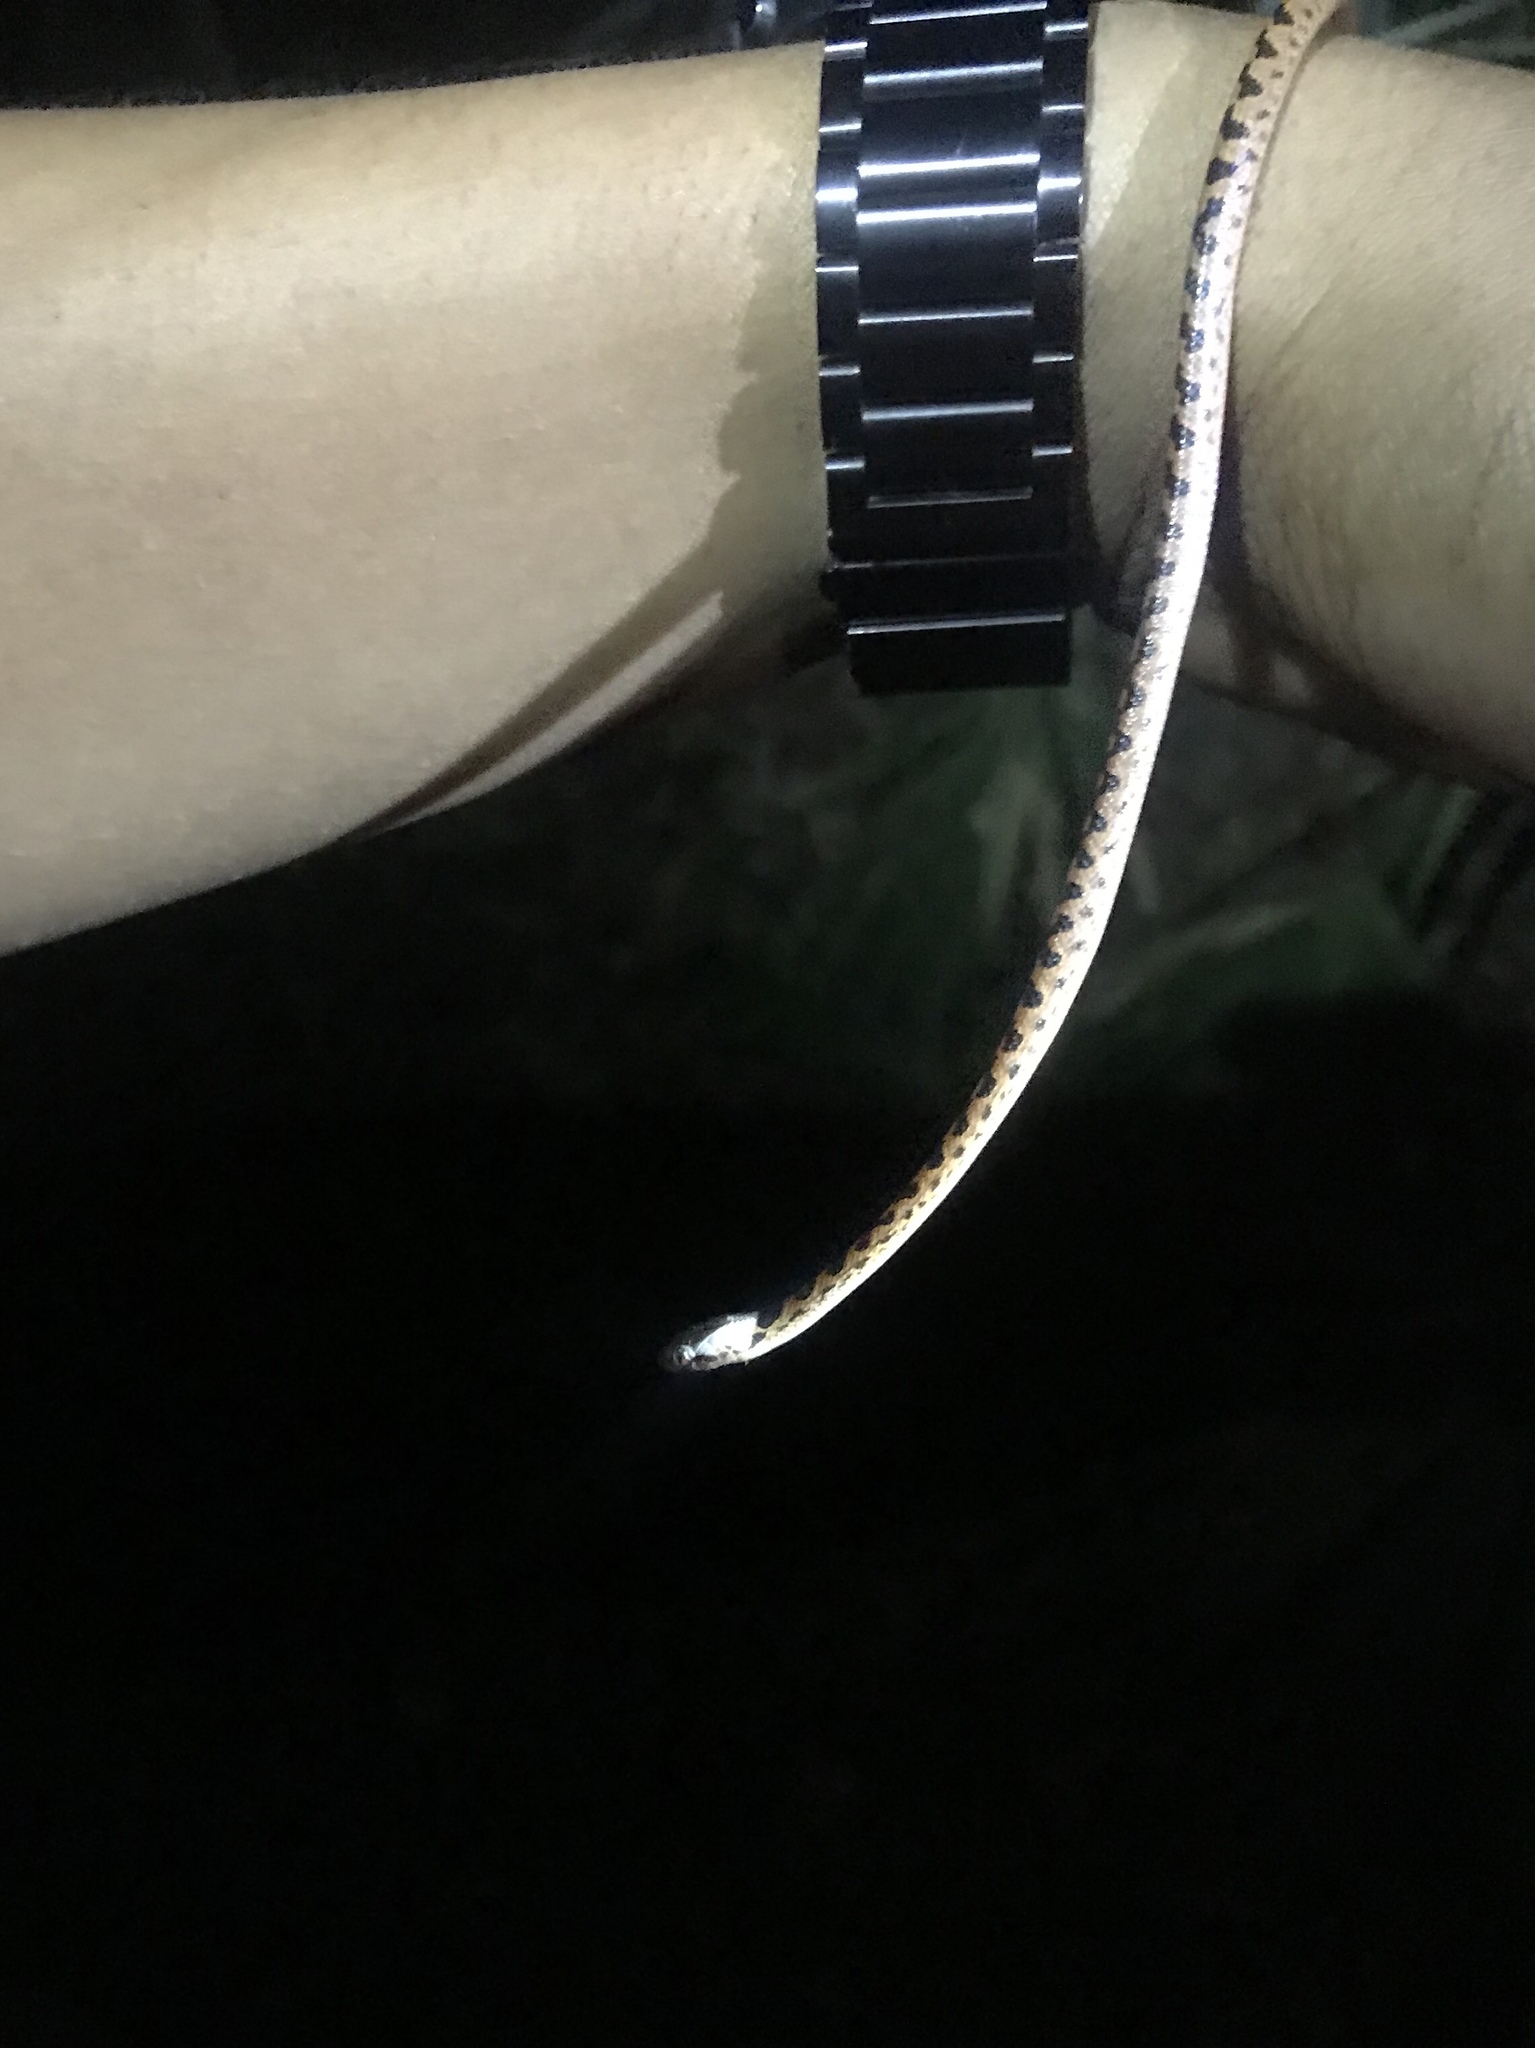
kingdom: Animalia
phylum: Chordata
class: Squamata
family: Colubridae
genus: Leptodeira
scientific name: Leptodeira ornata
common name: Northern cat-eyed snake
